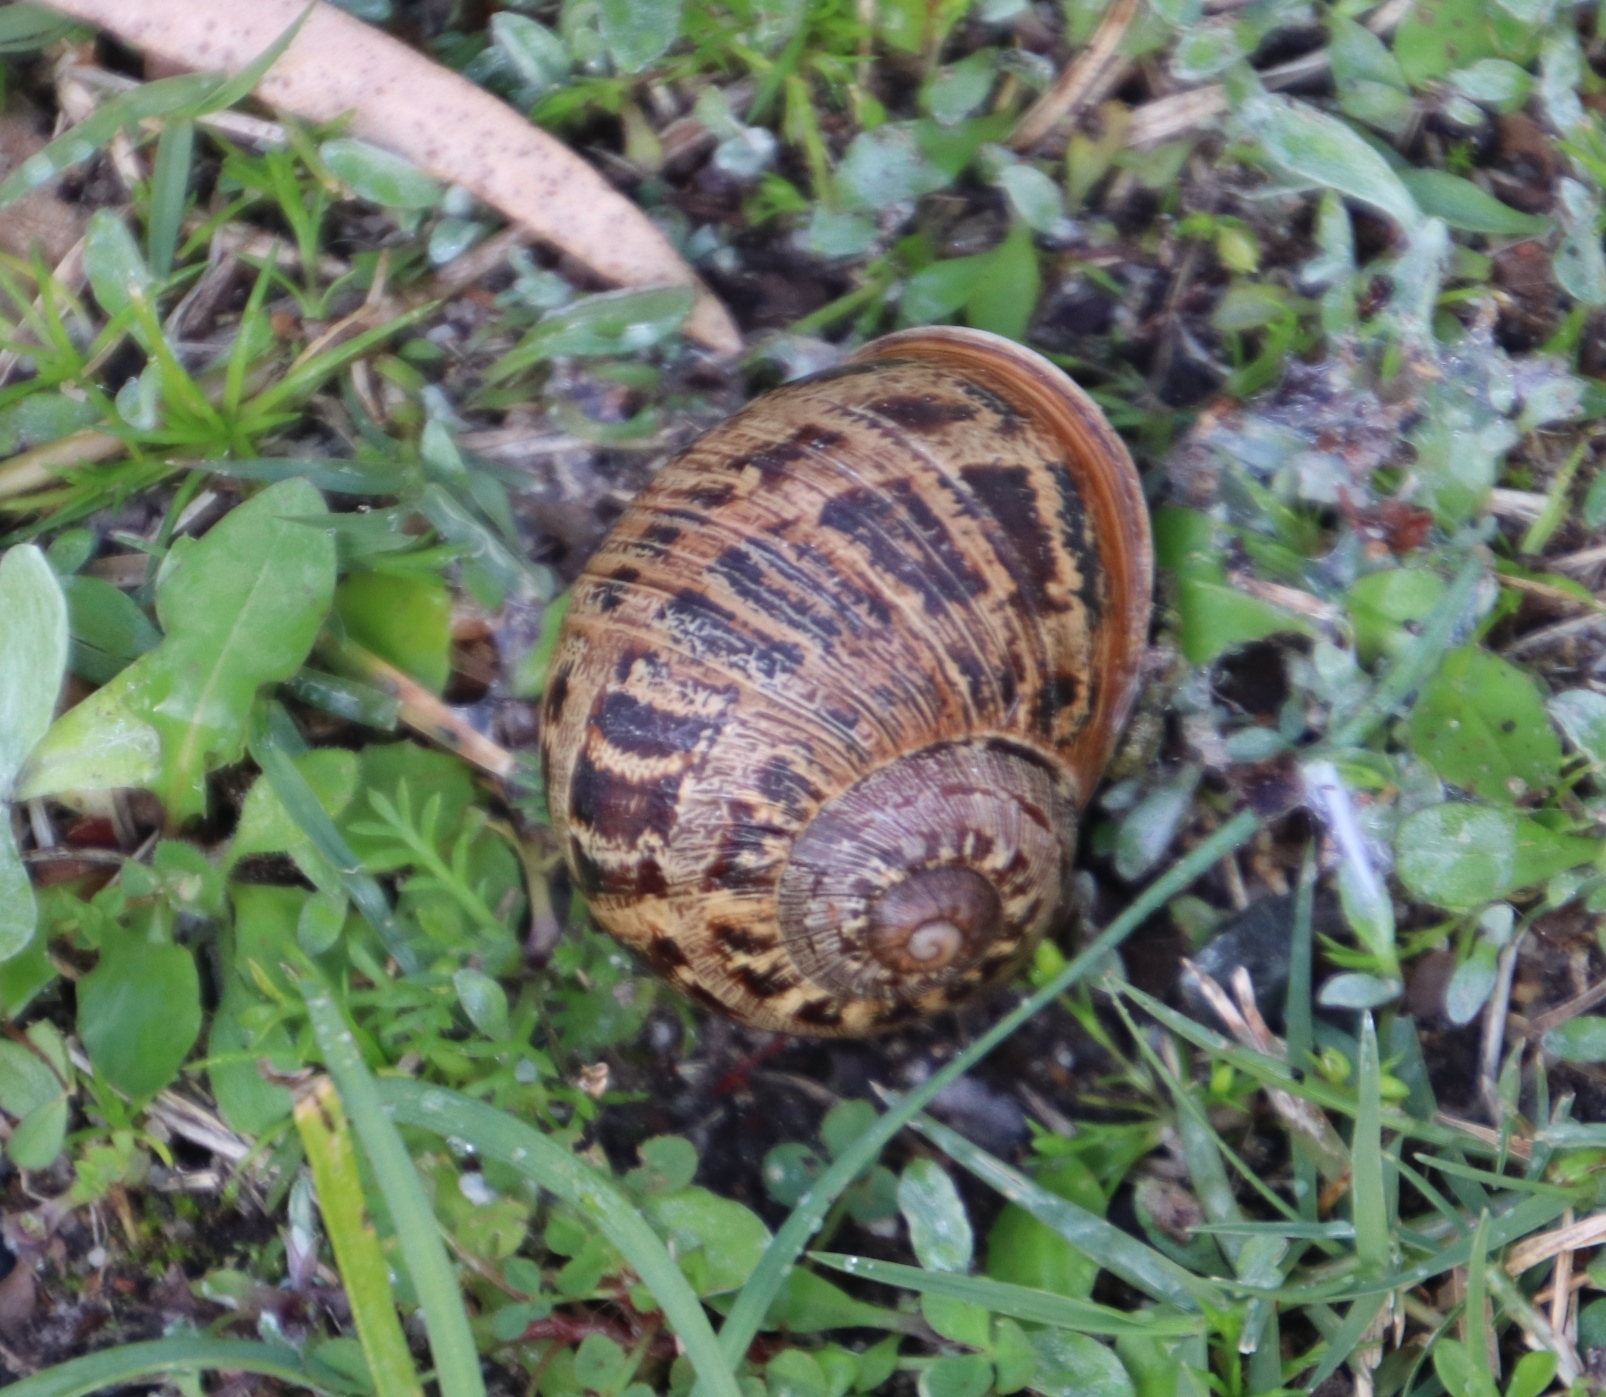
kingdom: Animalia
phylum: Mollusca
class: Gastropoda
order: Stylommatophora
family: Helicidae
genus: Cornu
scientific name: Cornu aspersum
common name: Brown garden snail
